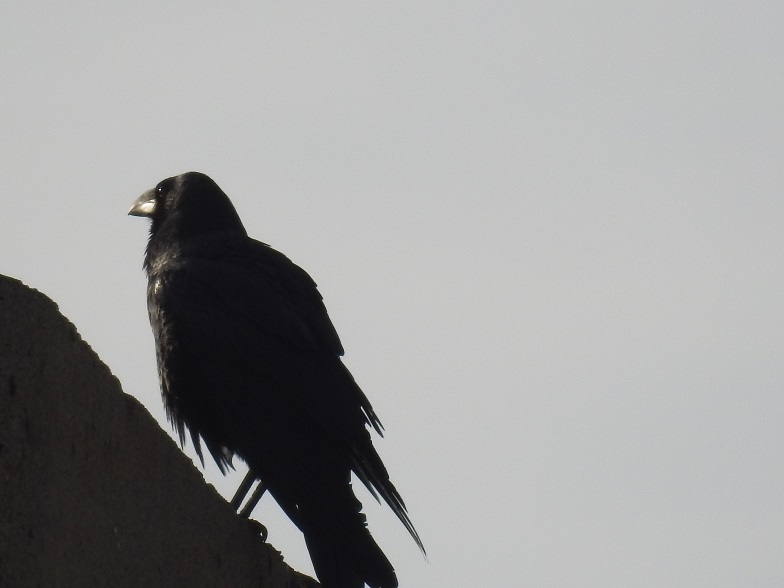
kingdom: Animalia
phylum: Chordata
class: Aves
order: Passeriformes
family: Corvidae
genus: Corvus
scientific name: Corvus corax
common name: Common raven
